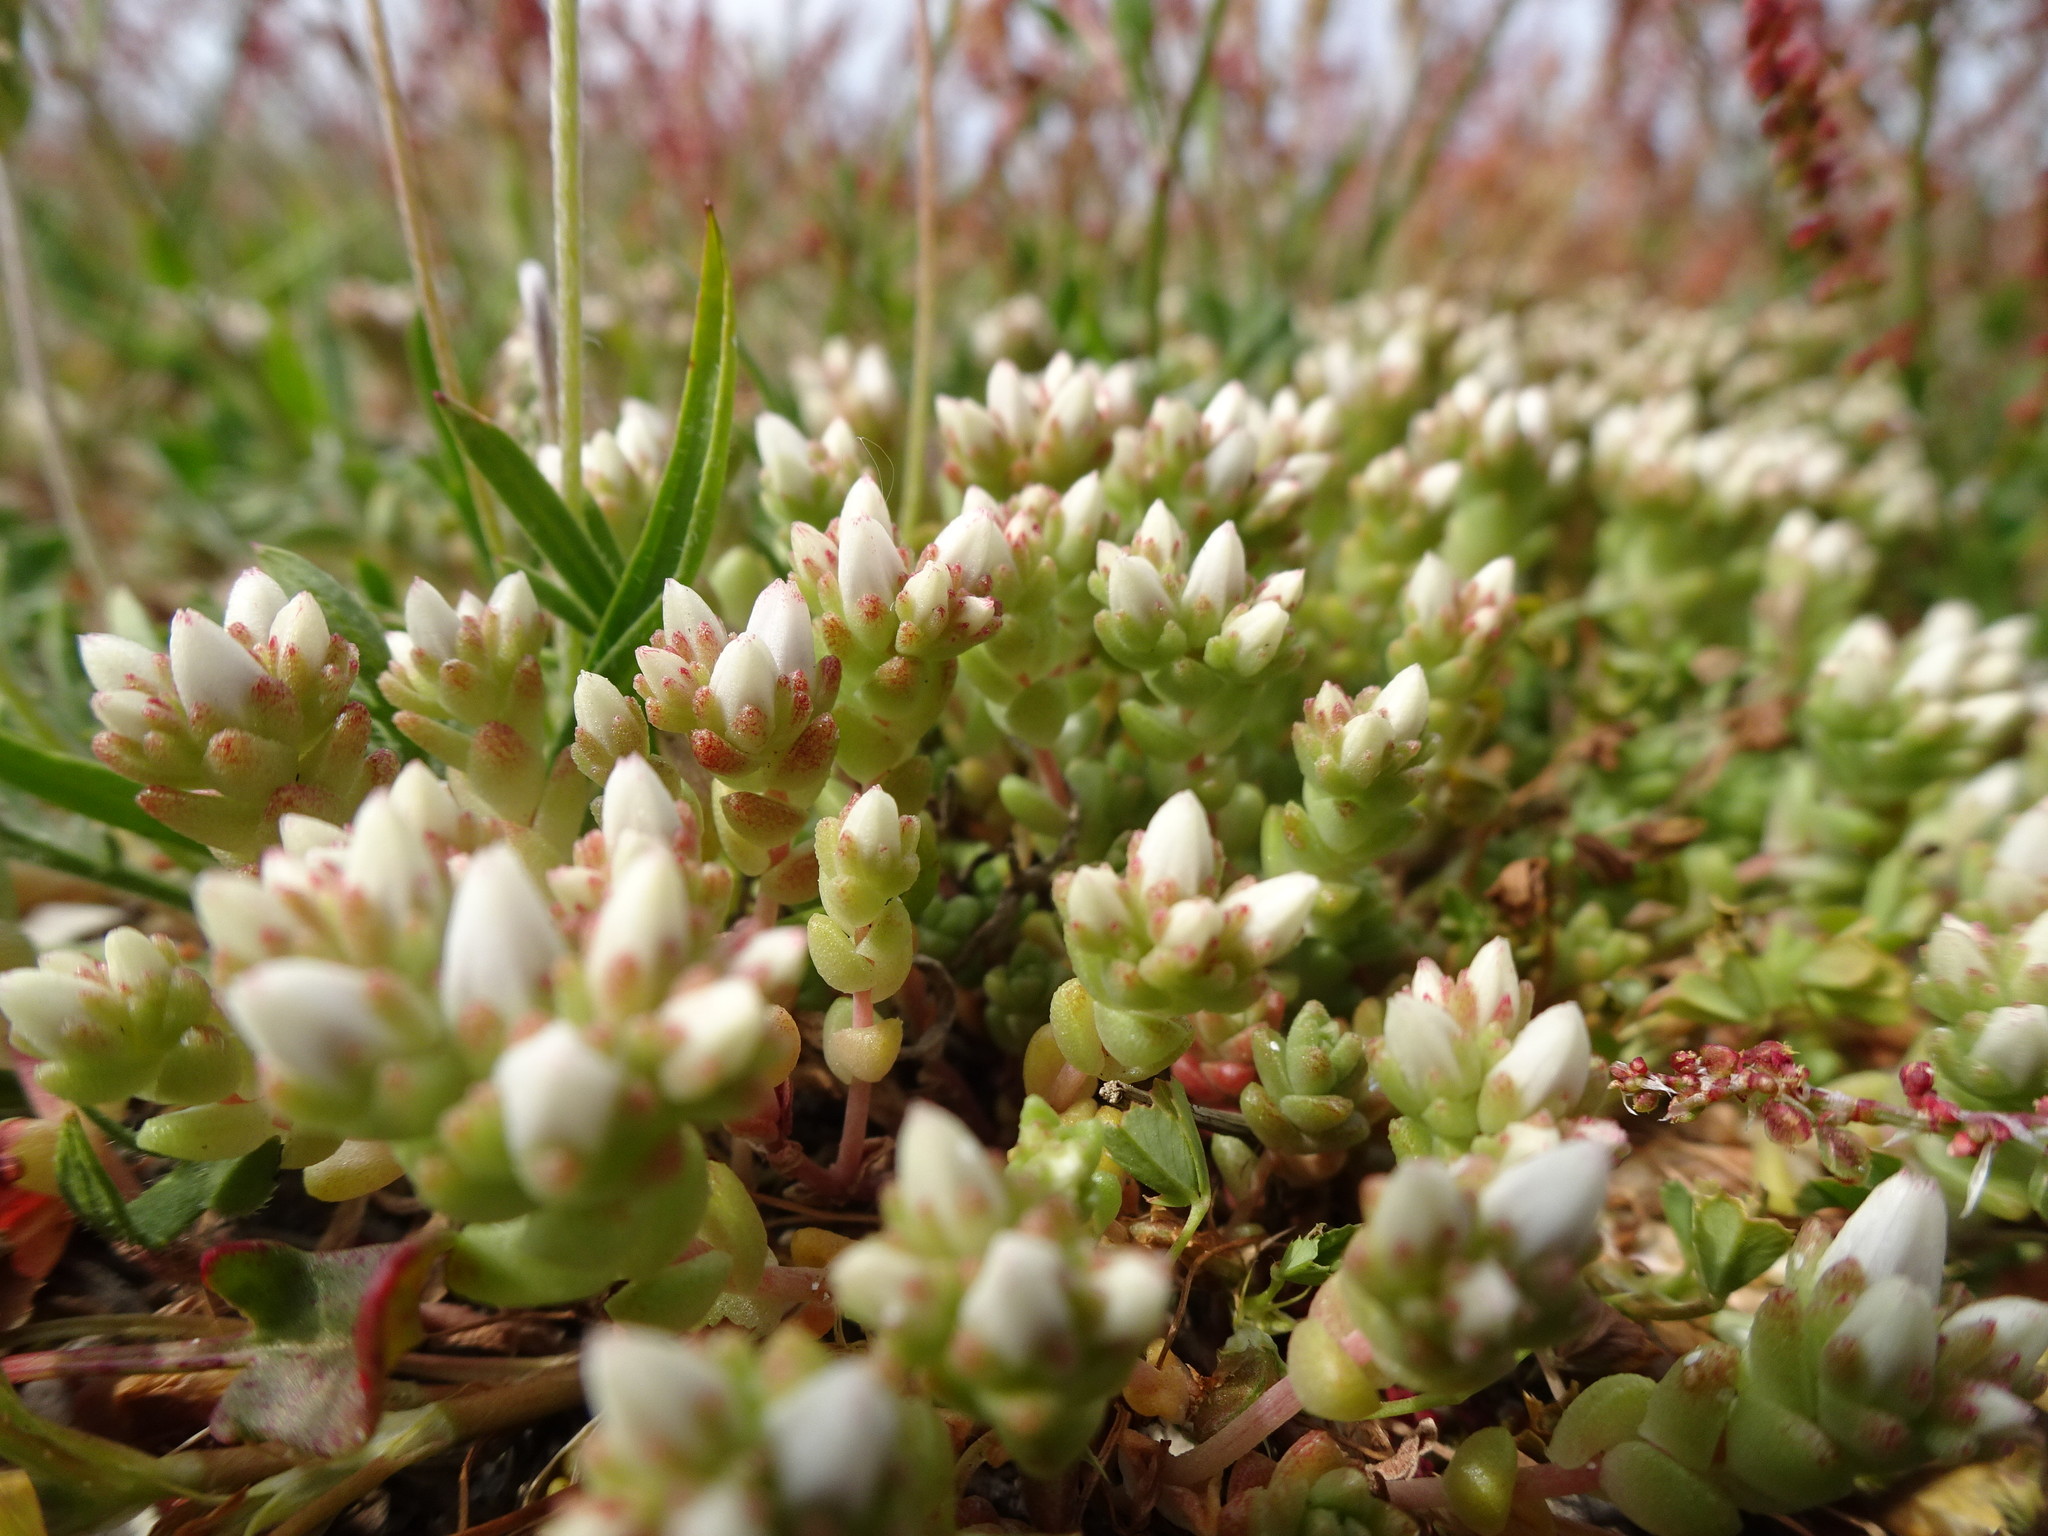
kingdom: Plantae
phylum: Tracheophyta
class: Magnoliopsida
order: Saxifragales
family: Crassulaceae
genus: Sedum
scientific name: Sedum anglicum
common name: English stonecrop
